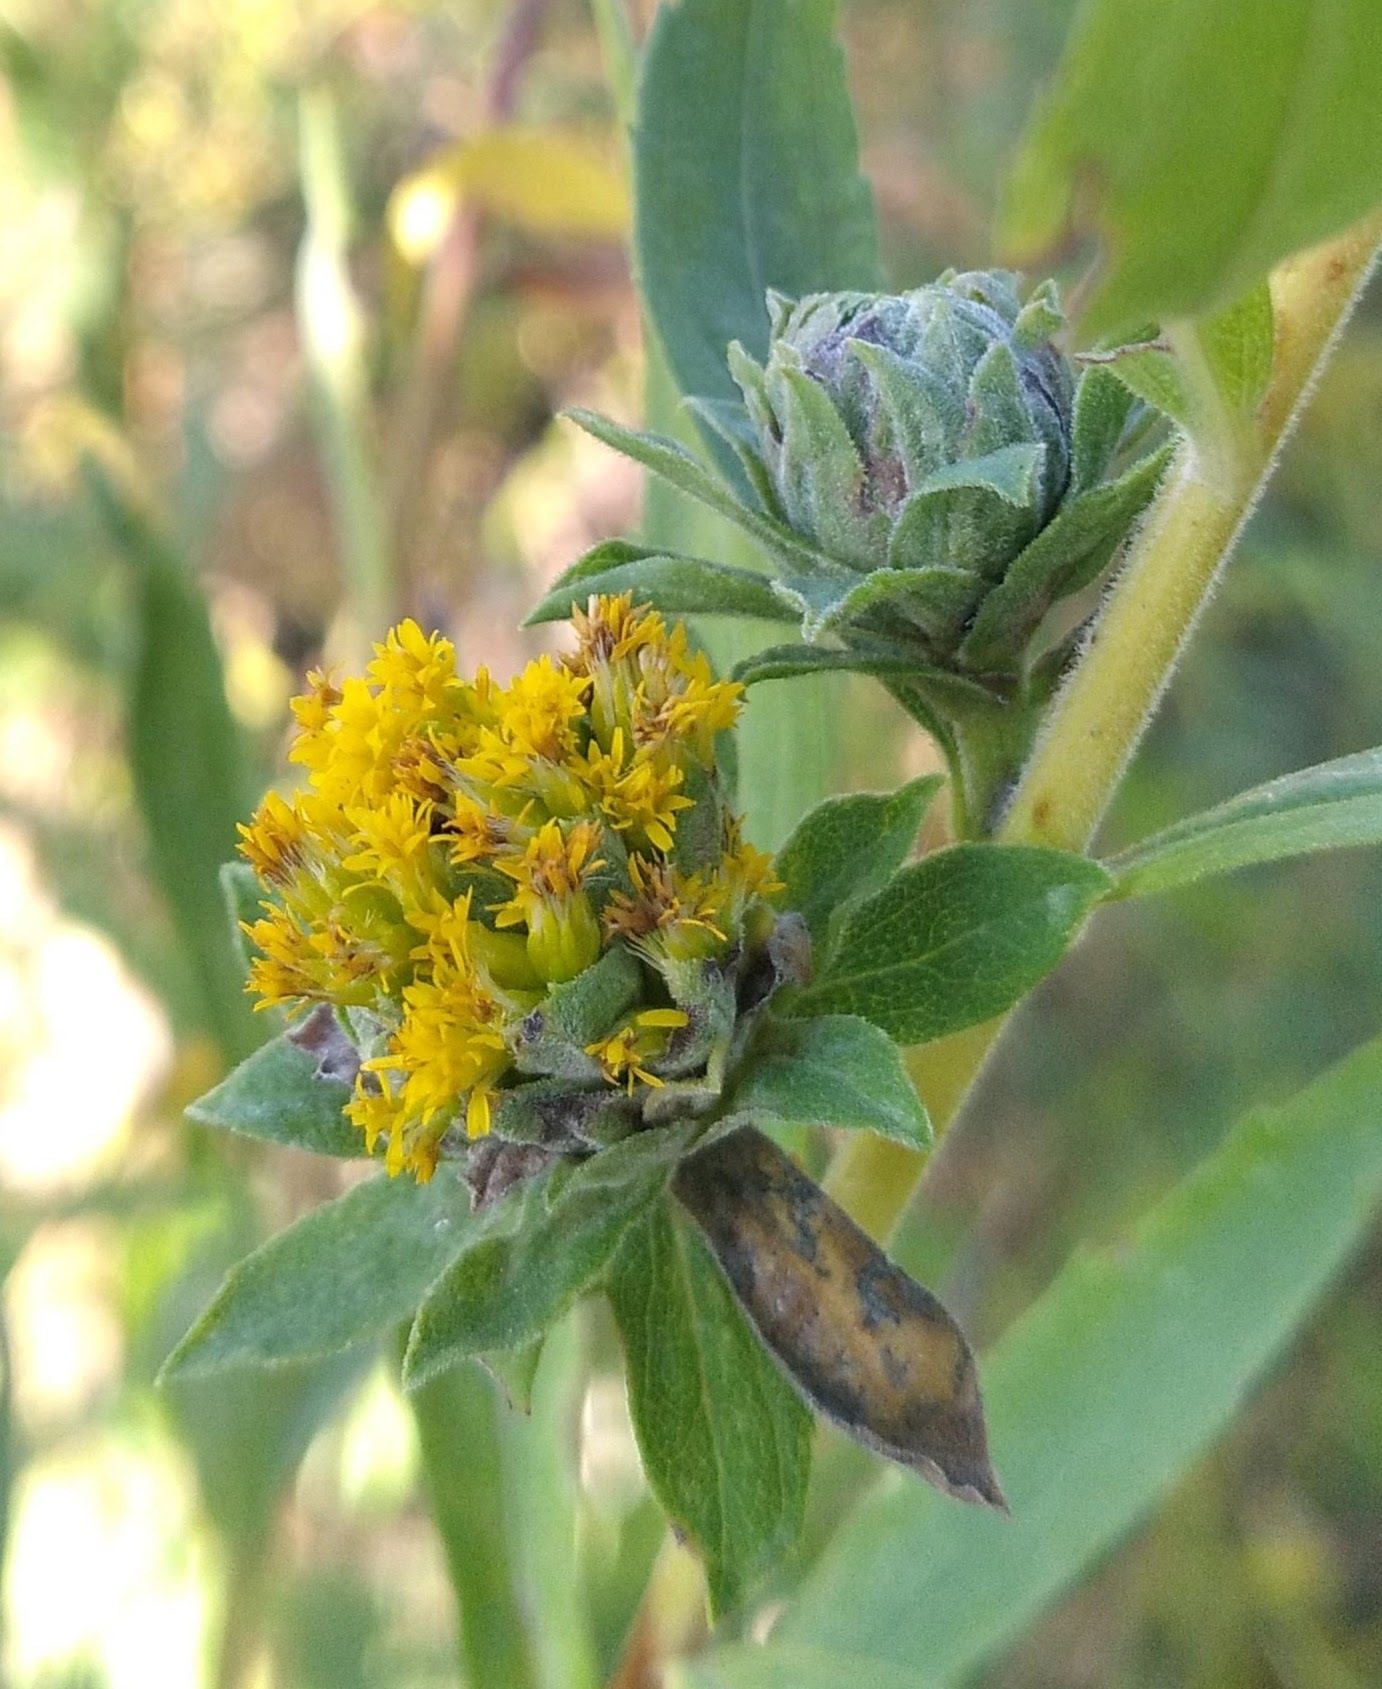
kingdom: Animalia
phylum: Arthropoda
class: Insecta
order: Diptera
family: Tephritidae
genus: Procecidochares
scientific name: Procecidochares atra
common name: Goldenrod brussels sprout gall fly
